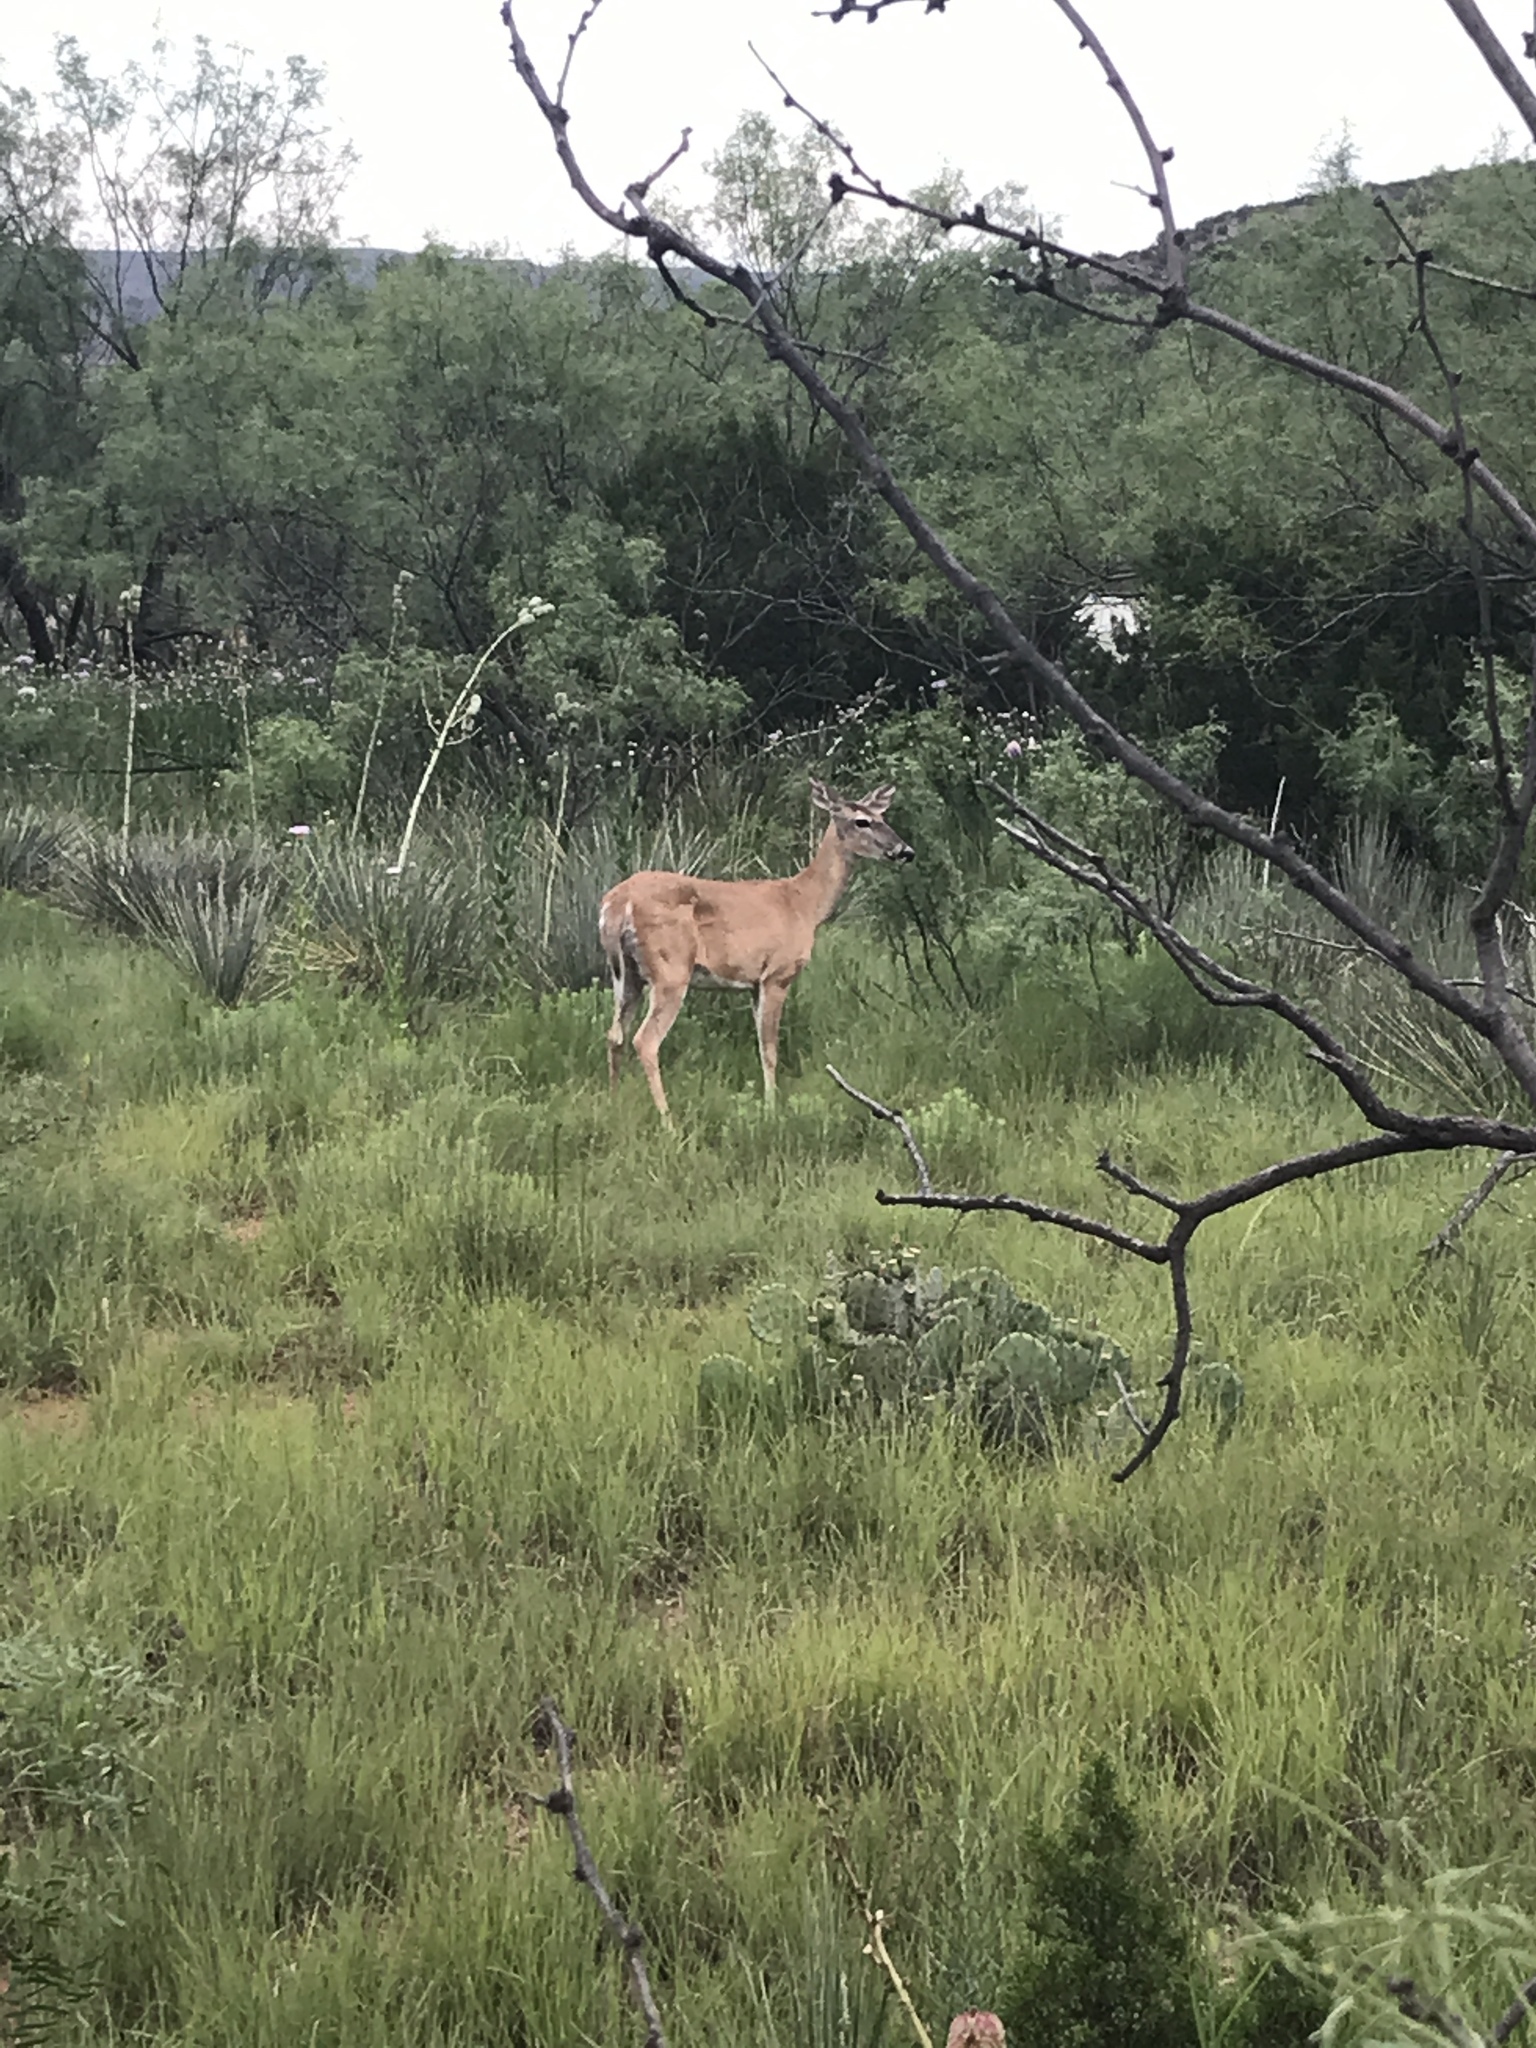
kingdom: Animalia
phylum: Chordata
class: Mammalia
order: Artiodactyla
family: Cervidae
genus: Odocoileus
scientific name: Odocoileus virginianus
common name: White-tailed deer
